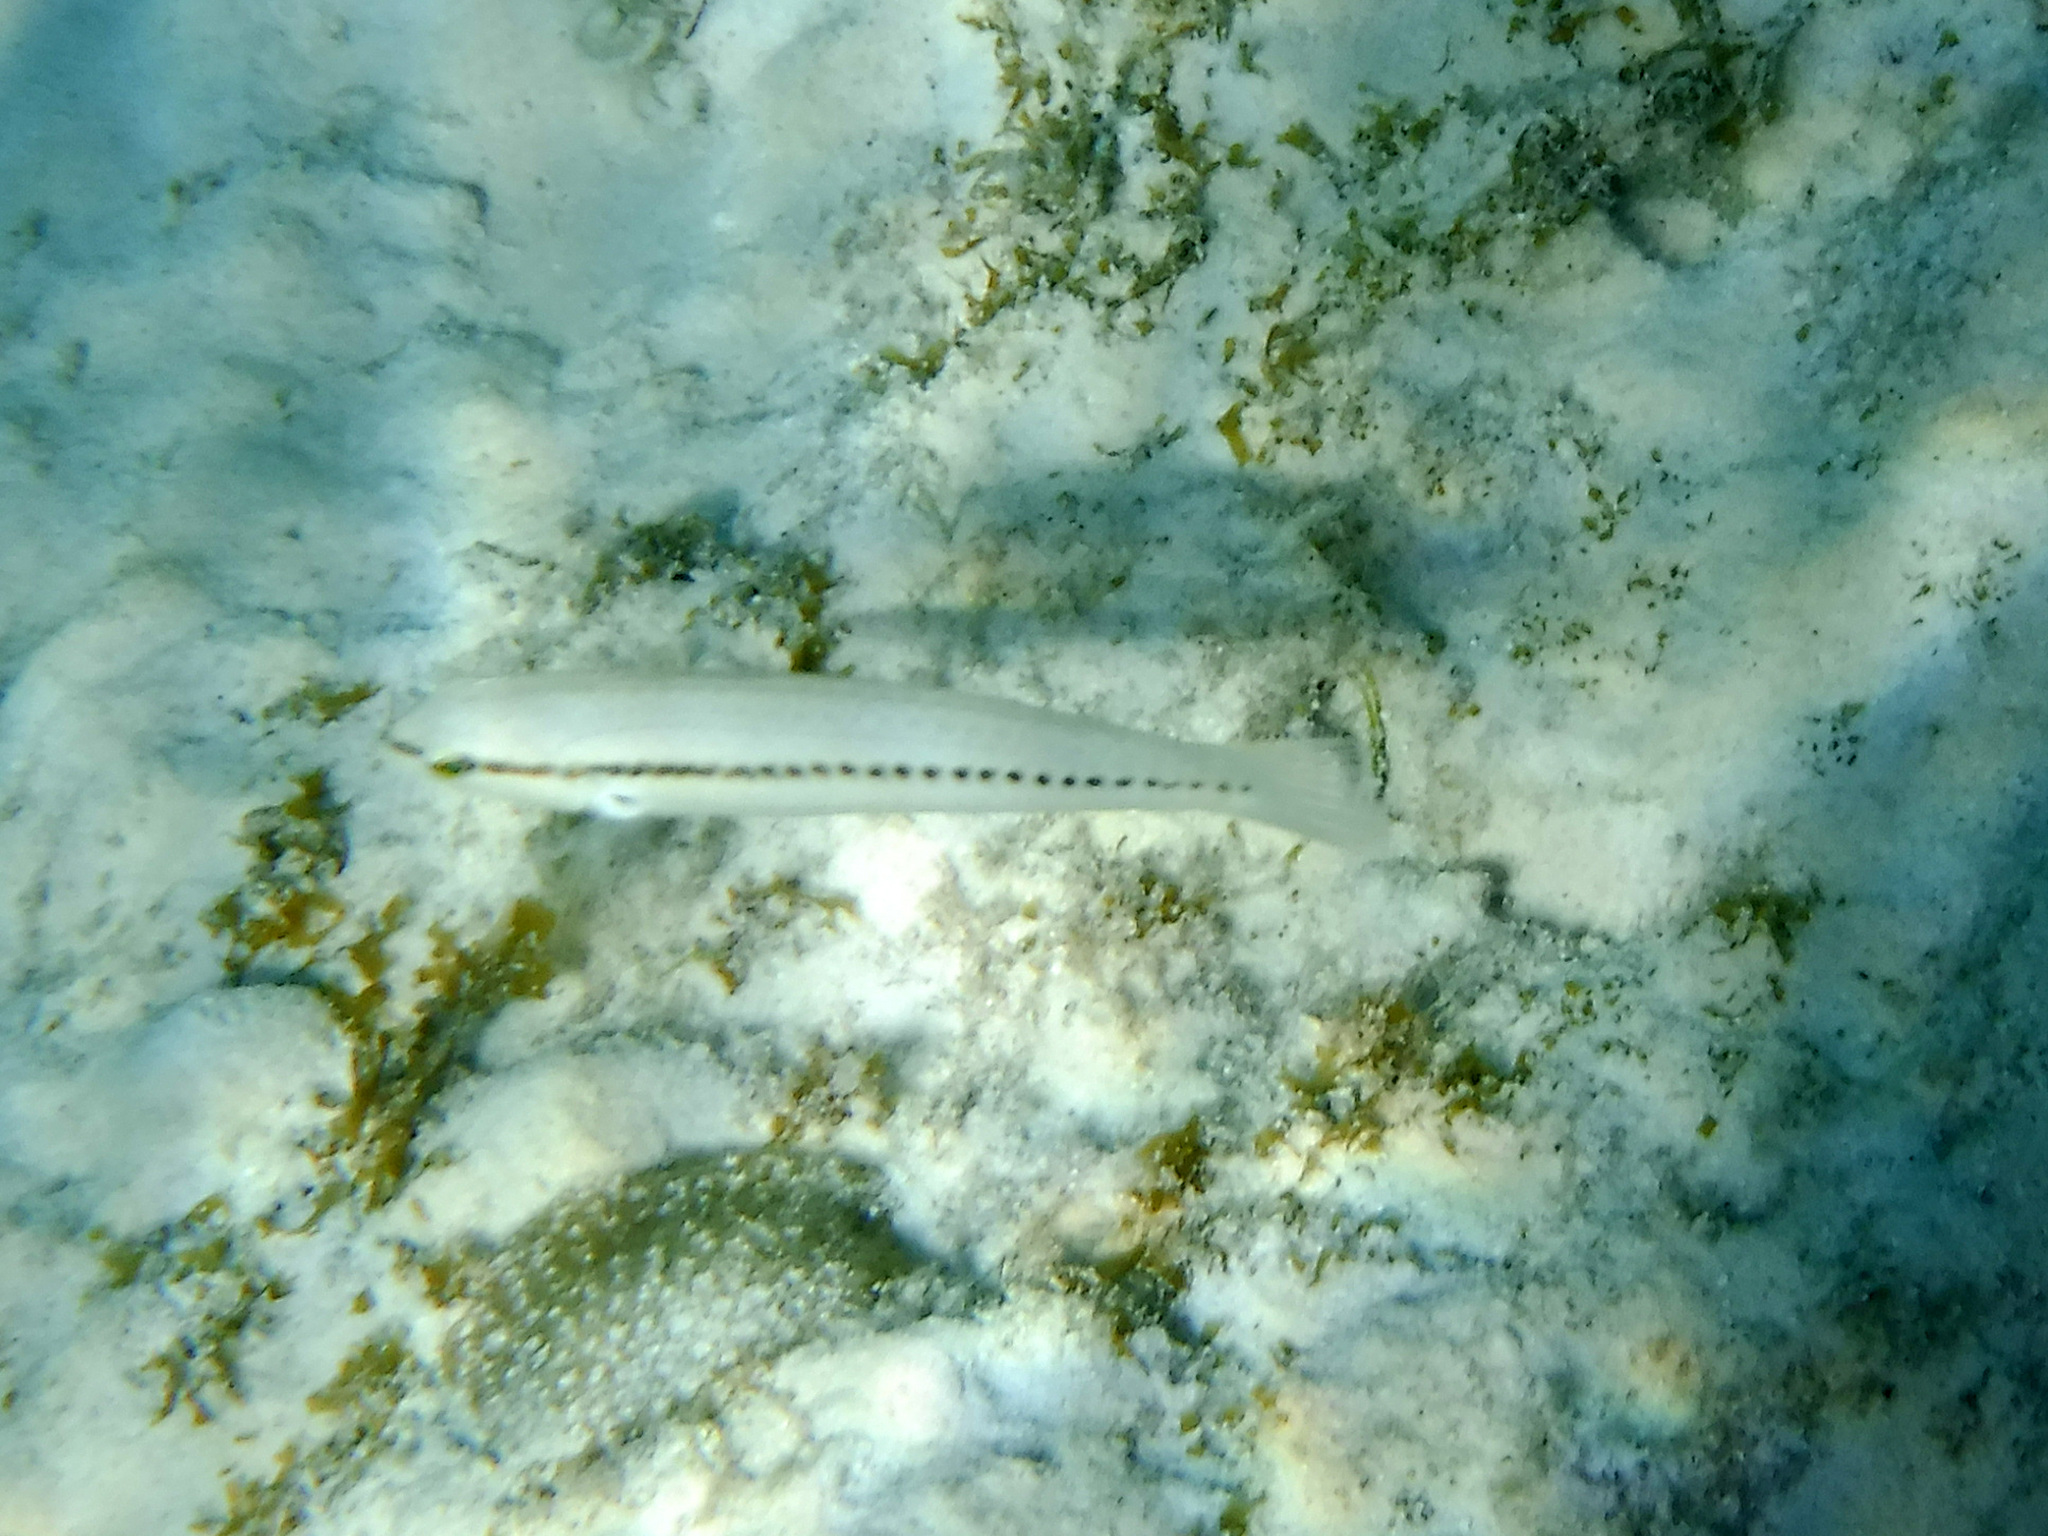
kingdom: Animalia
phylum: Chordata
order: Perciformes
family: Labridae
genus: Halichoeres
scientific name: Halichoeres bivittatus
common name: Slippery dick
